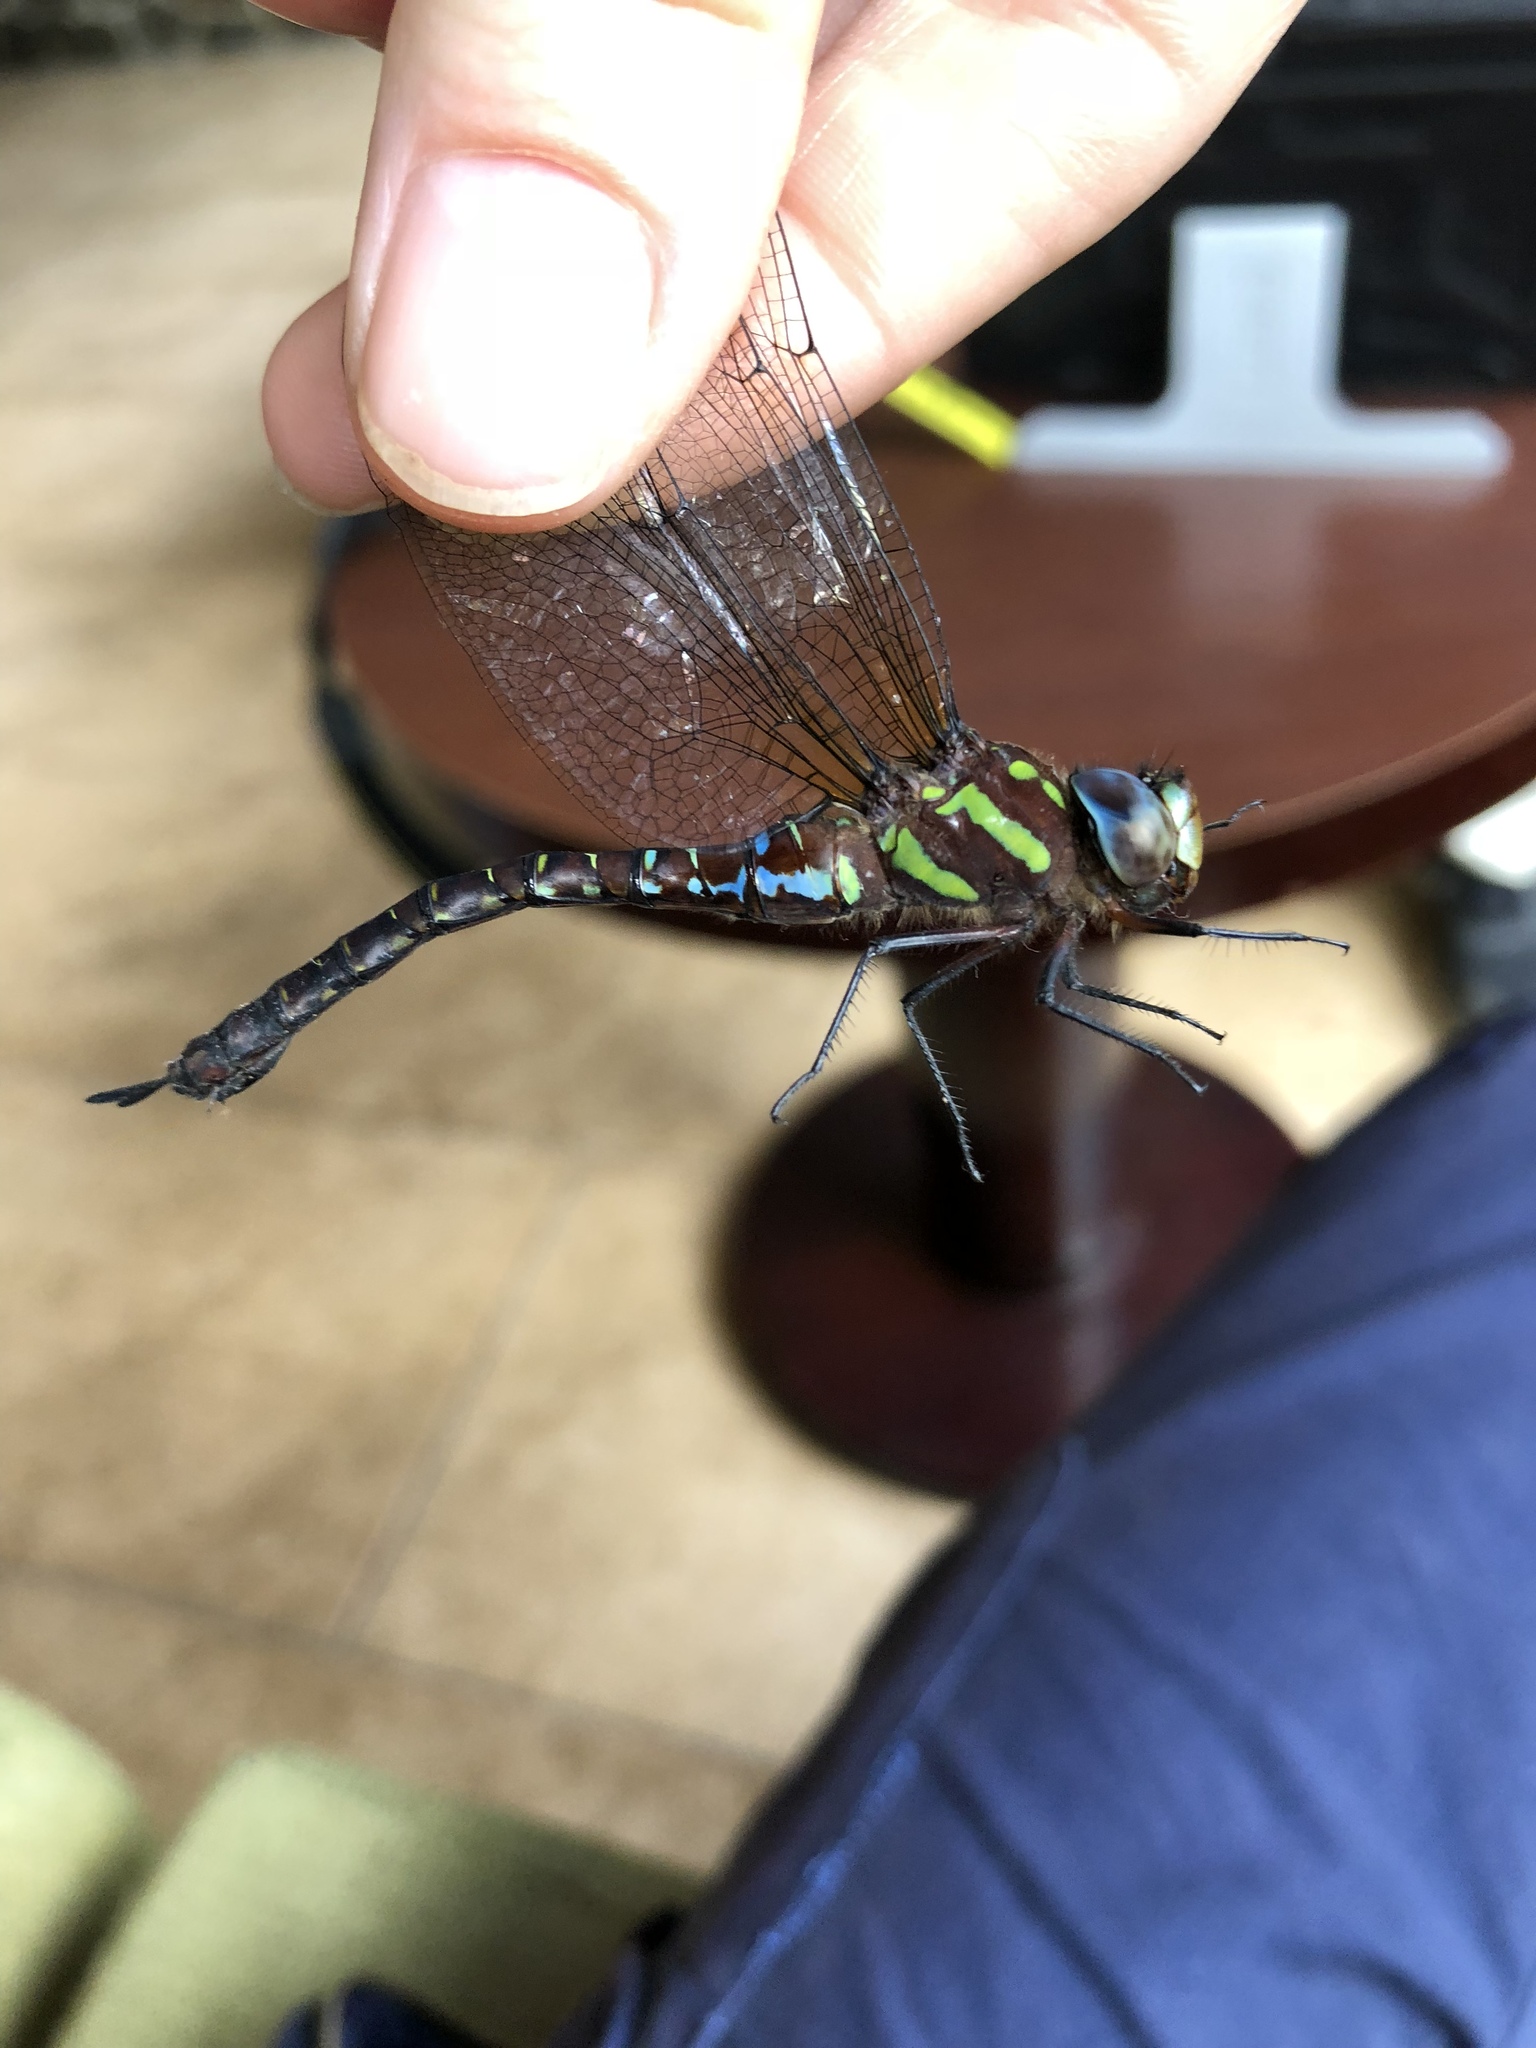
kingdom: Animalia
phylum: Arthropoda
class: Insecta
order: Odonata
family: Aeshnidae
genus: Rhionaeschna
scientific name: Rhionaeschna cornigera
